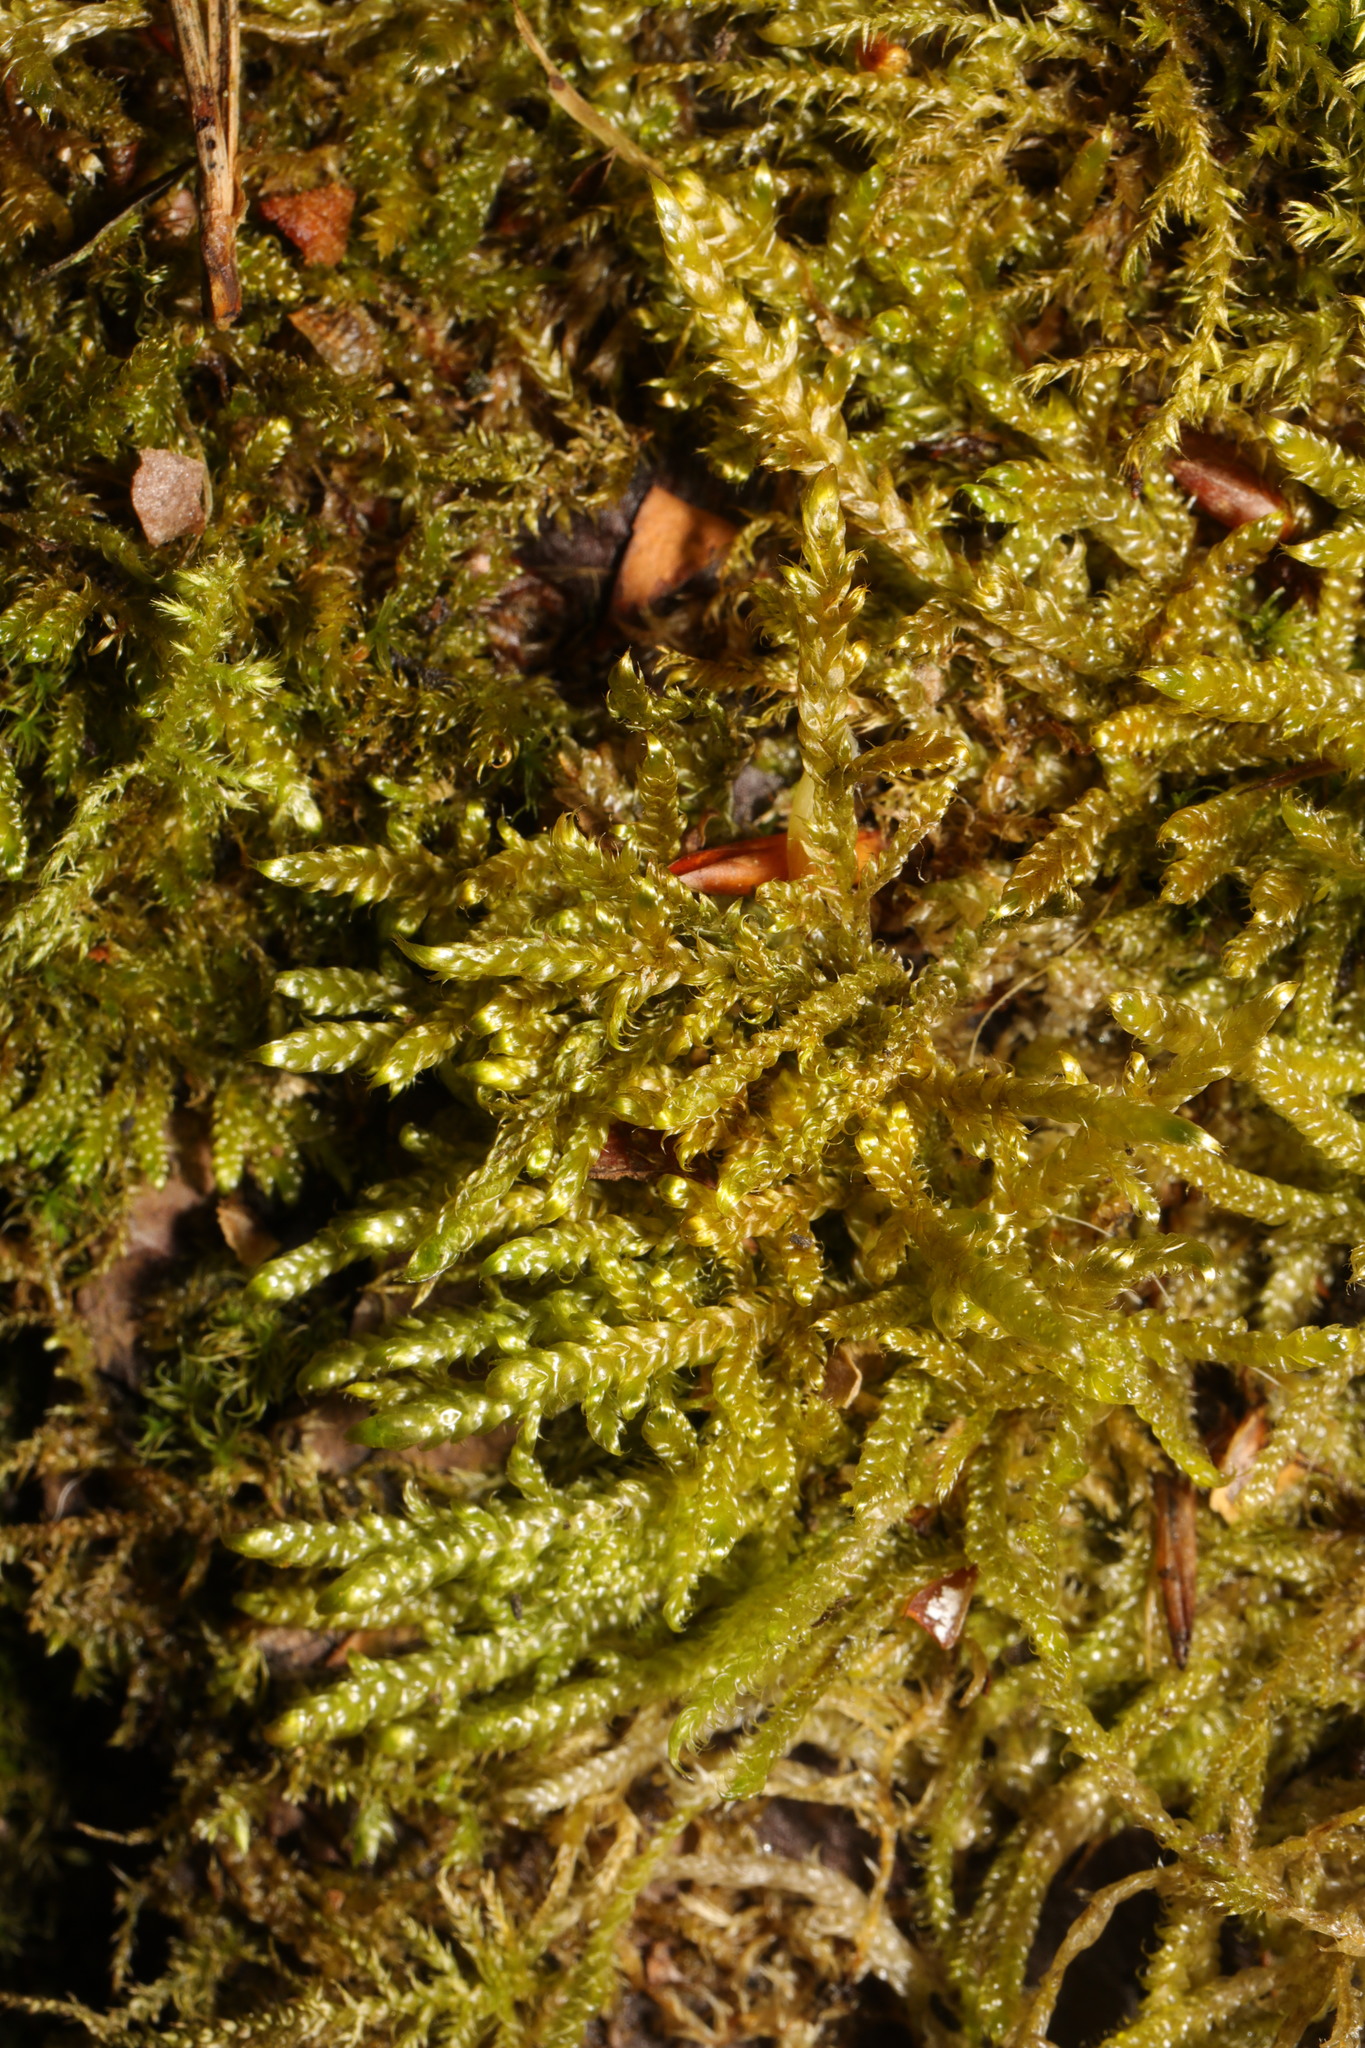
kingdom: Plantae
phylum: Bryophyta
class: Bryopsida
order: Hypnales
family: Hypnaceae
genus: Hypnum
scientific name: Hypnum cupressiforme
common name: Cypress-leaved plait-moss
